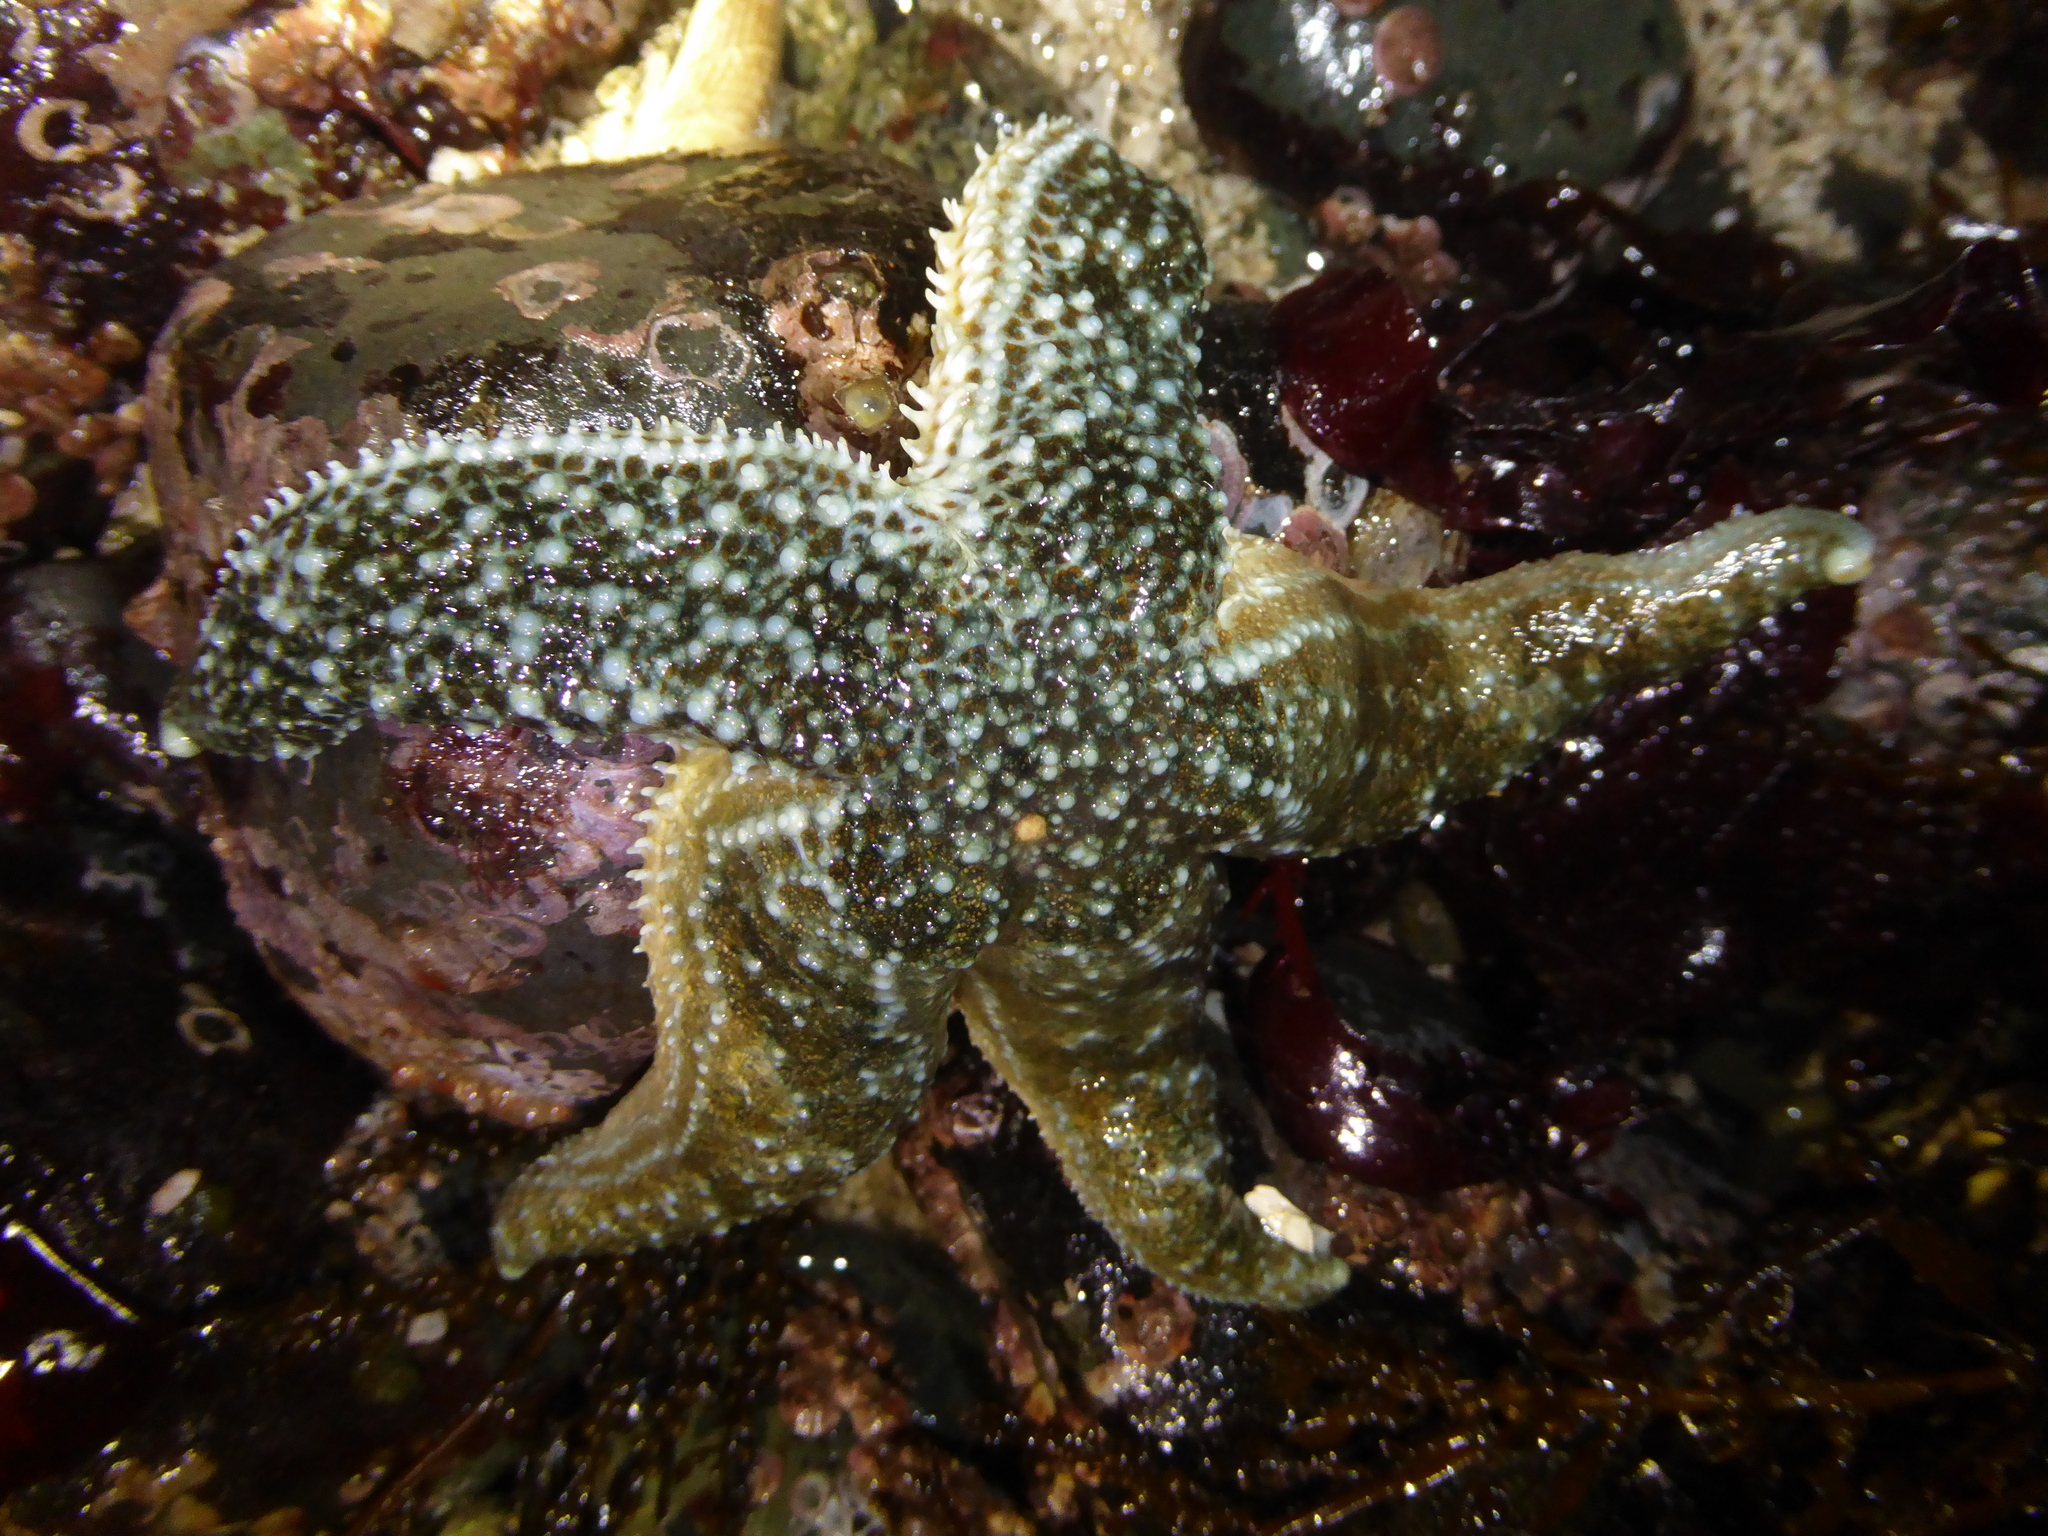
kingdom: Animalia
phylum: Echinodermata
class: Asteroidea
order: Forcipulatida
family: Asteriidae
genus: Evasterias
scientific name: Evasterias troschelii
